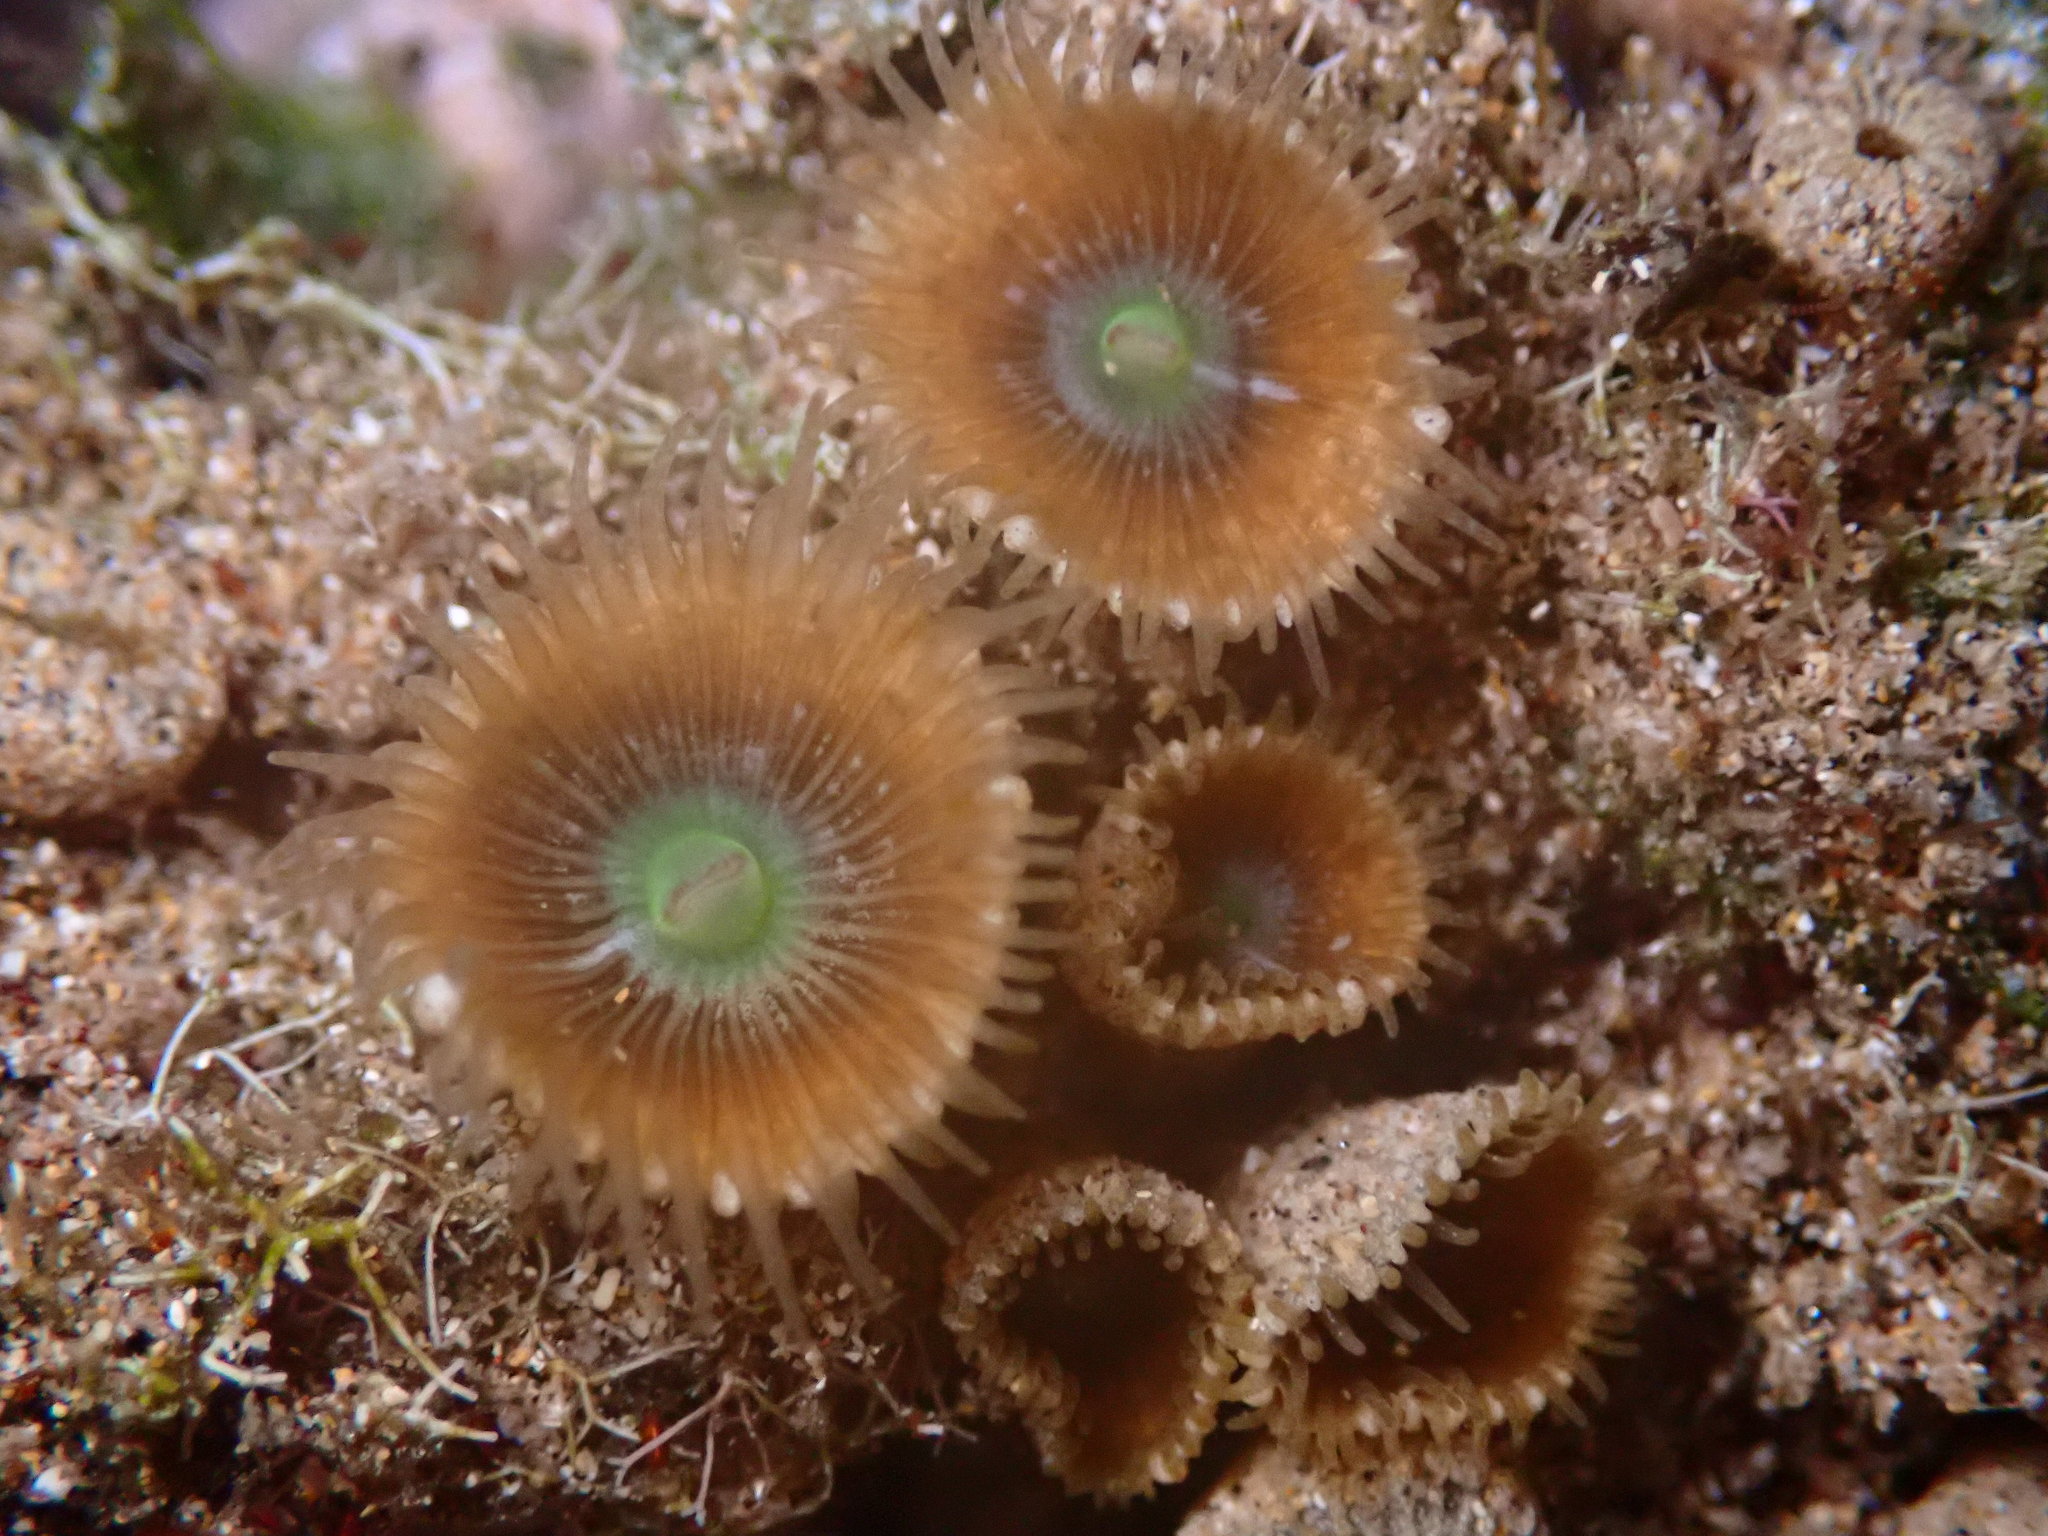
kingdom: Animalia
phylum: Cnidaria
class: Anthozoa
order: Zoantharia
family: Sphenopidae
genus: Palythoa
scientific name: Palythoa mutuki
